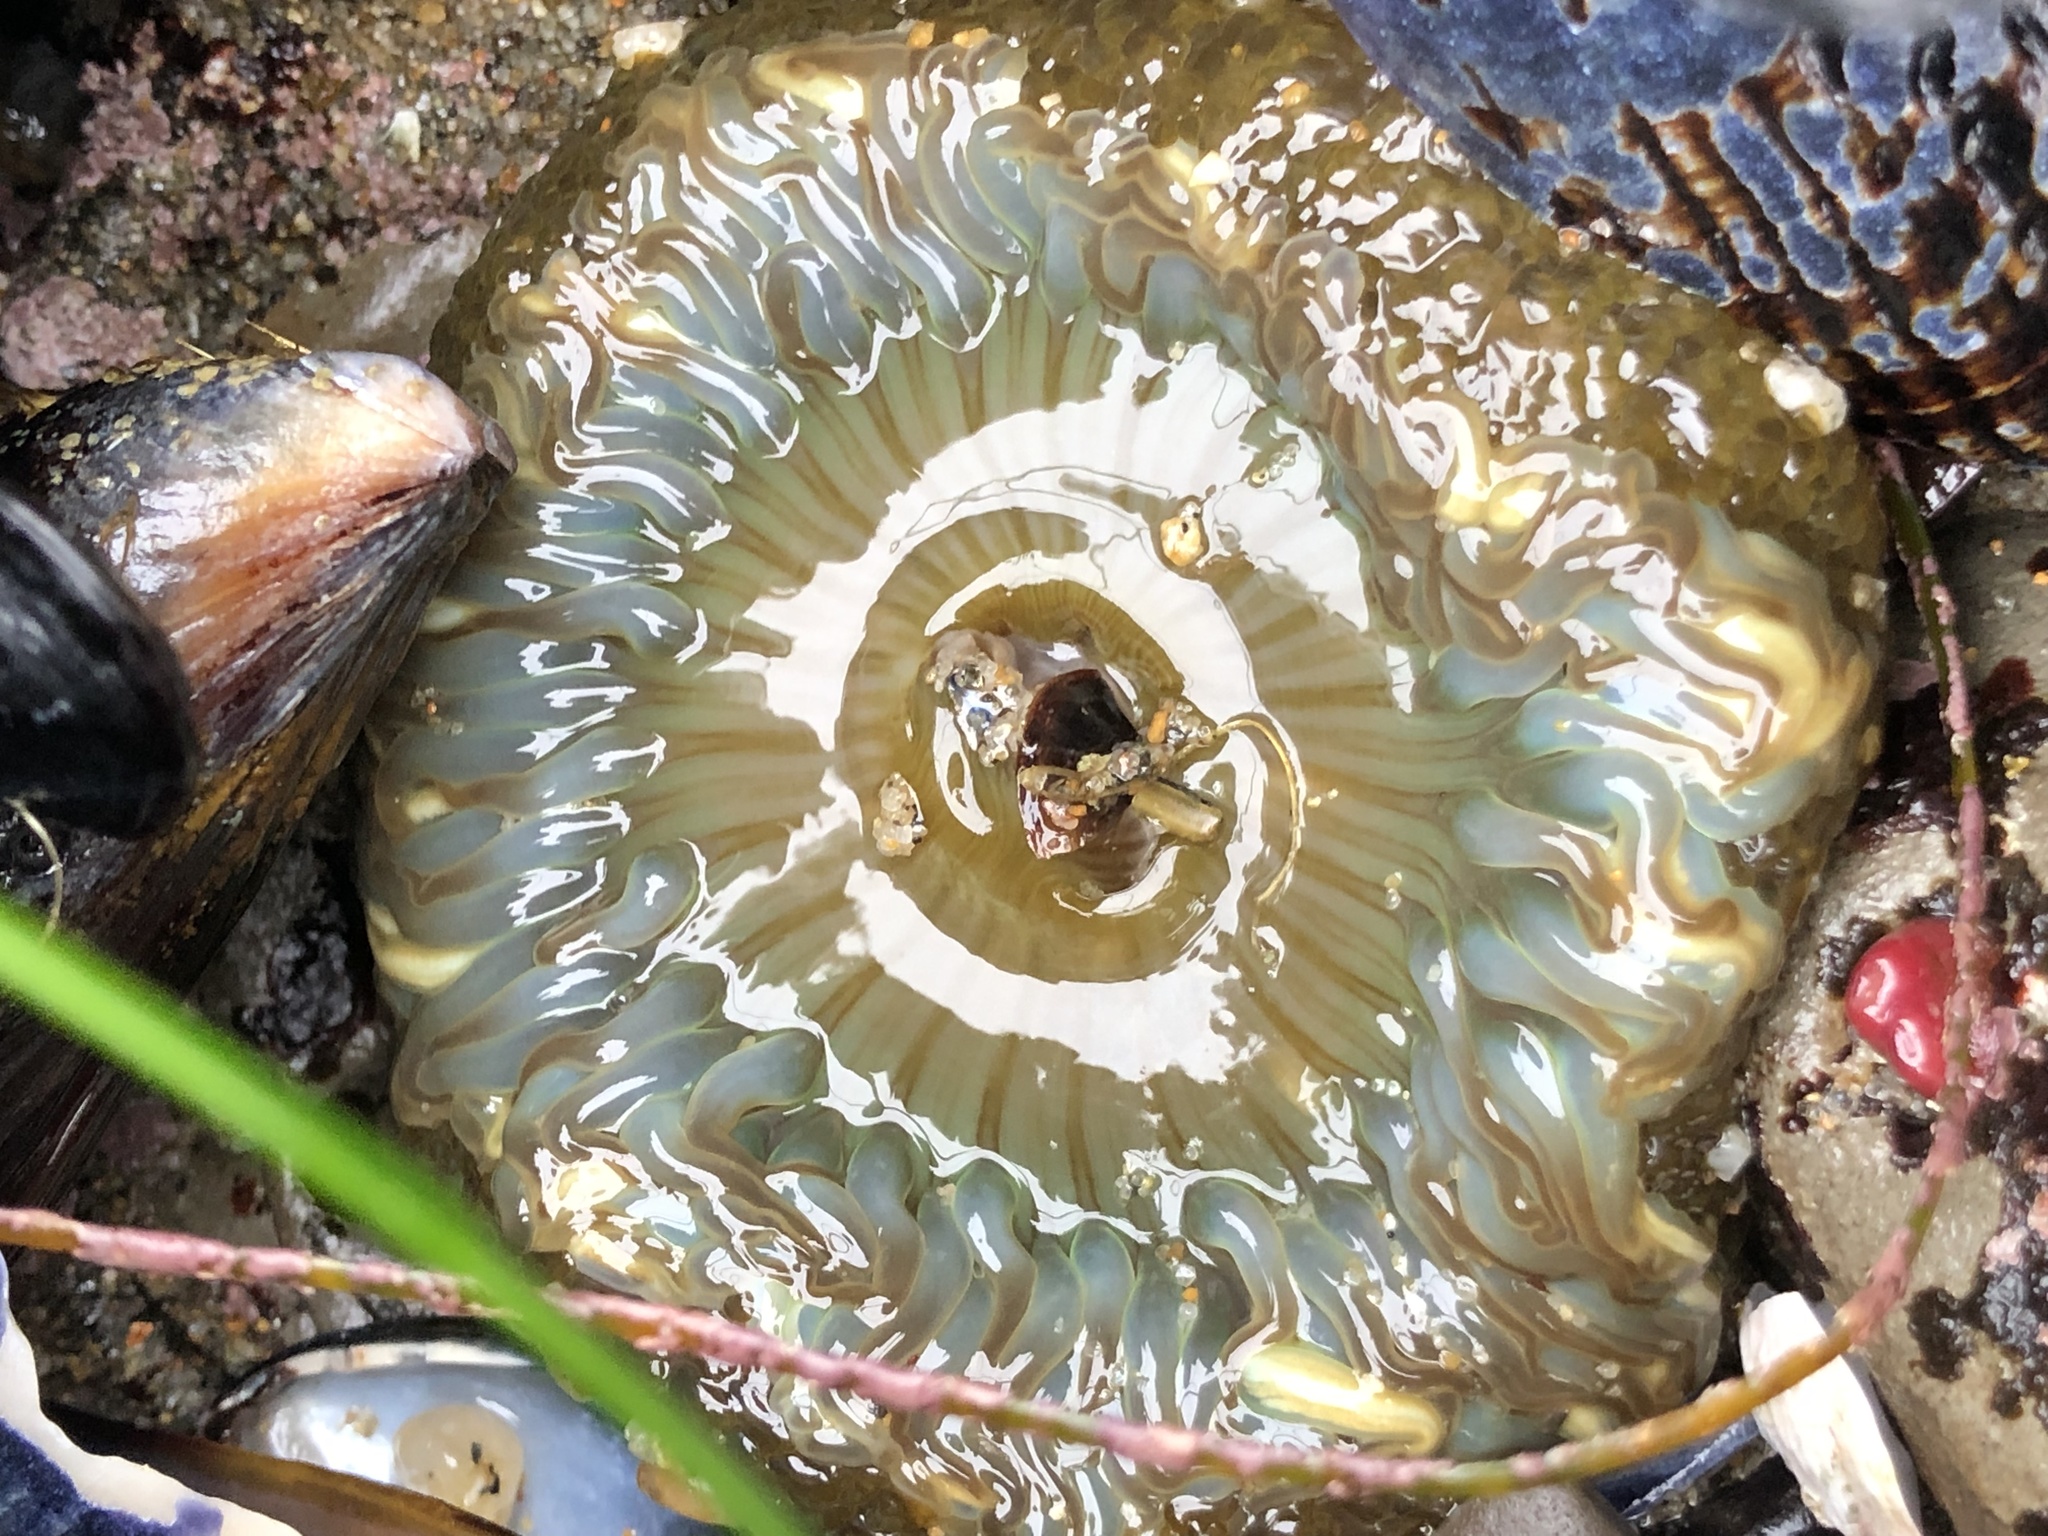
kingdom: Animalia
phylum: Cnidaria
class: Anthozoa
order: Actiniaria
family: Actiniidae
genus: Anthopleura
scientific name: Anthopleura sola
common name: Sun anemone
